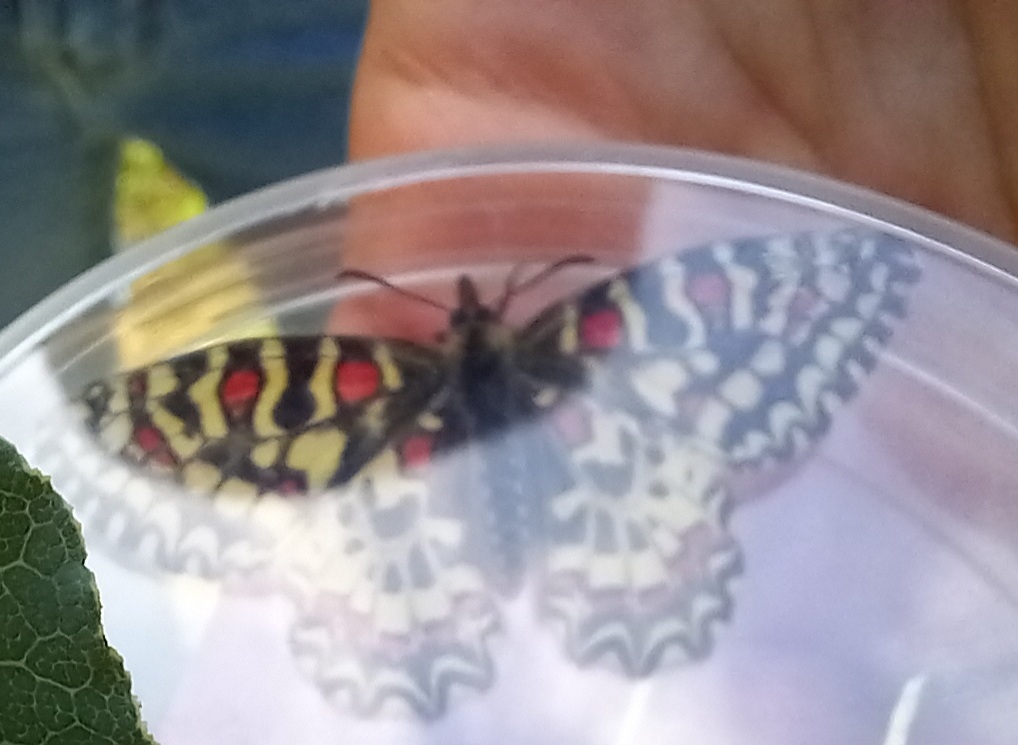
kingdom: Animalia
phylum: Arthropoda
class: Insecta
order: Lepidoptera
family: Papilionidae
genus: Zerynthia
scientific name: Zerynthia rumina
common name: Spanish festoon
